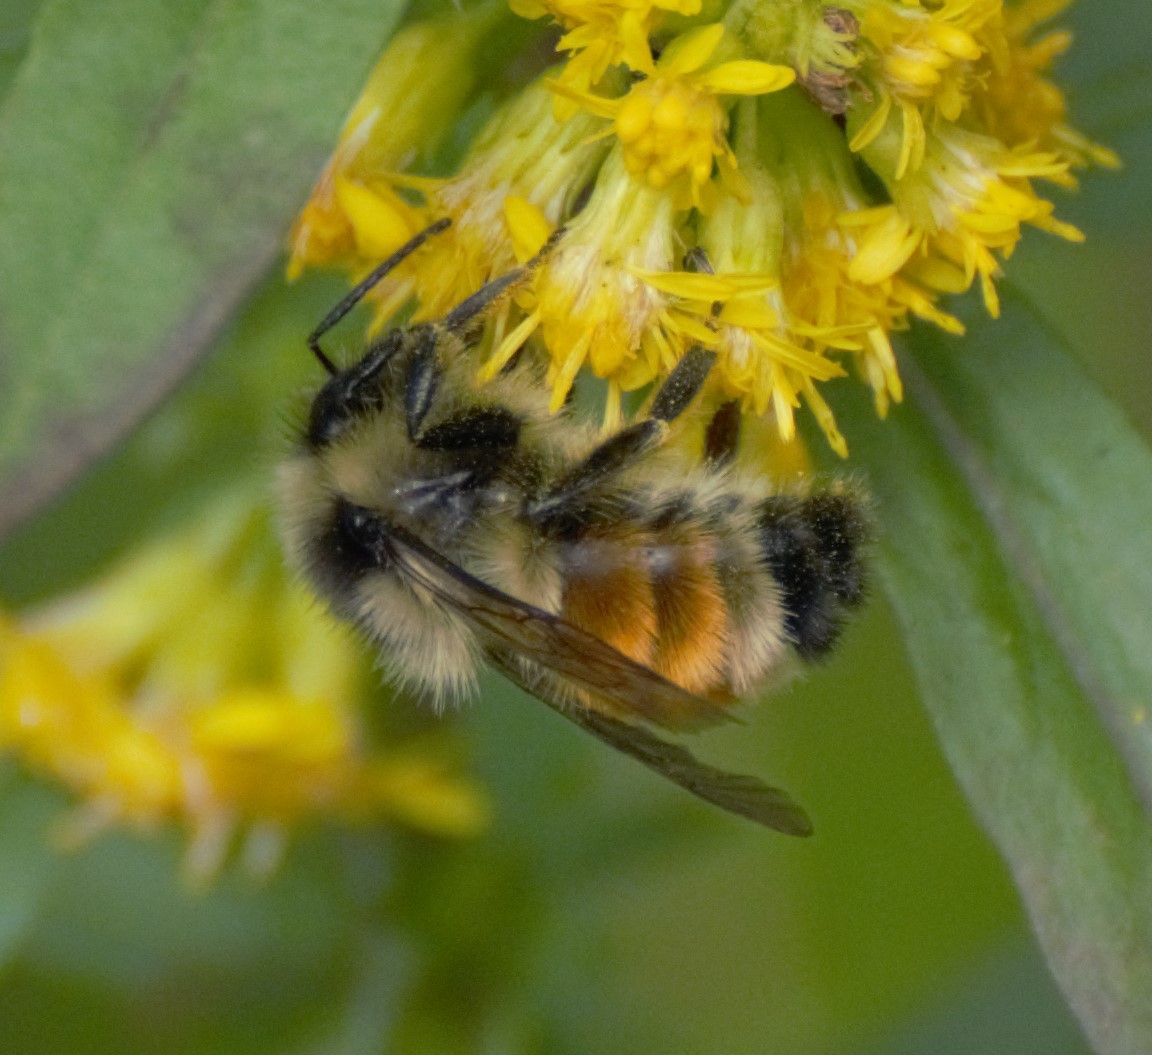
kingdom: Animalia
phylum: Arthropoda
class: Insecta
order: Hymenoptera
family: Apidae
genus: Bombus
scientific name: Bombus ternarius
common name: Tri-colored bumble bee
